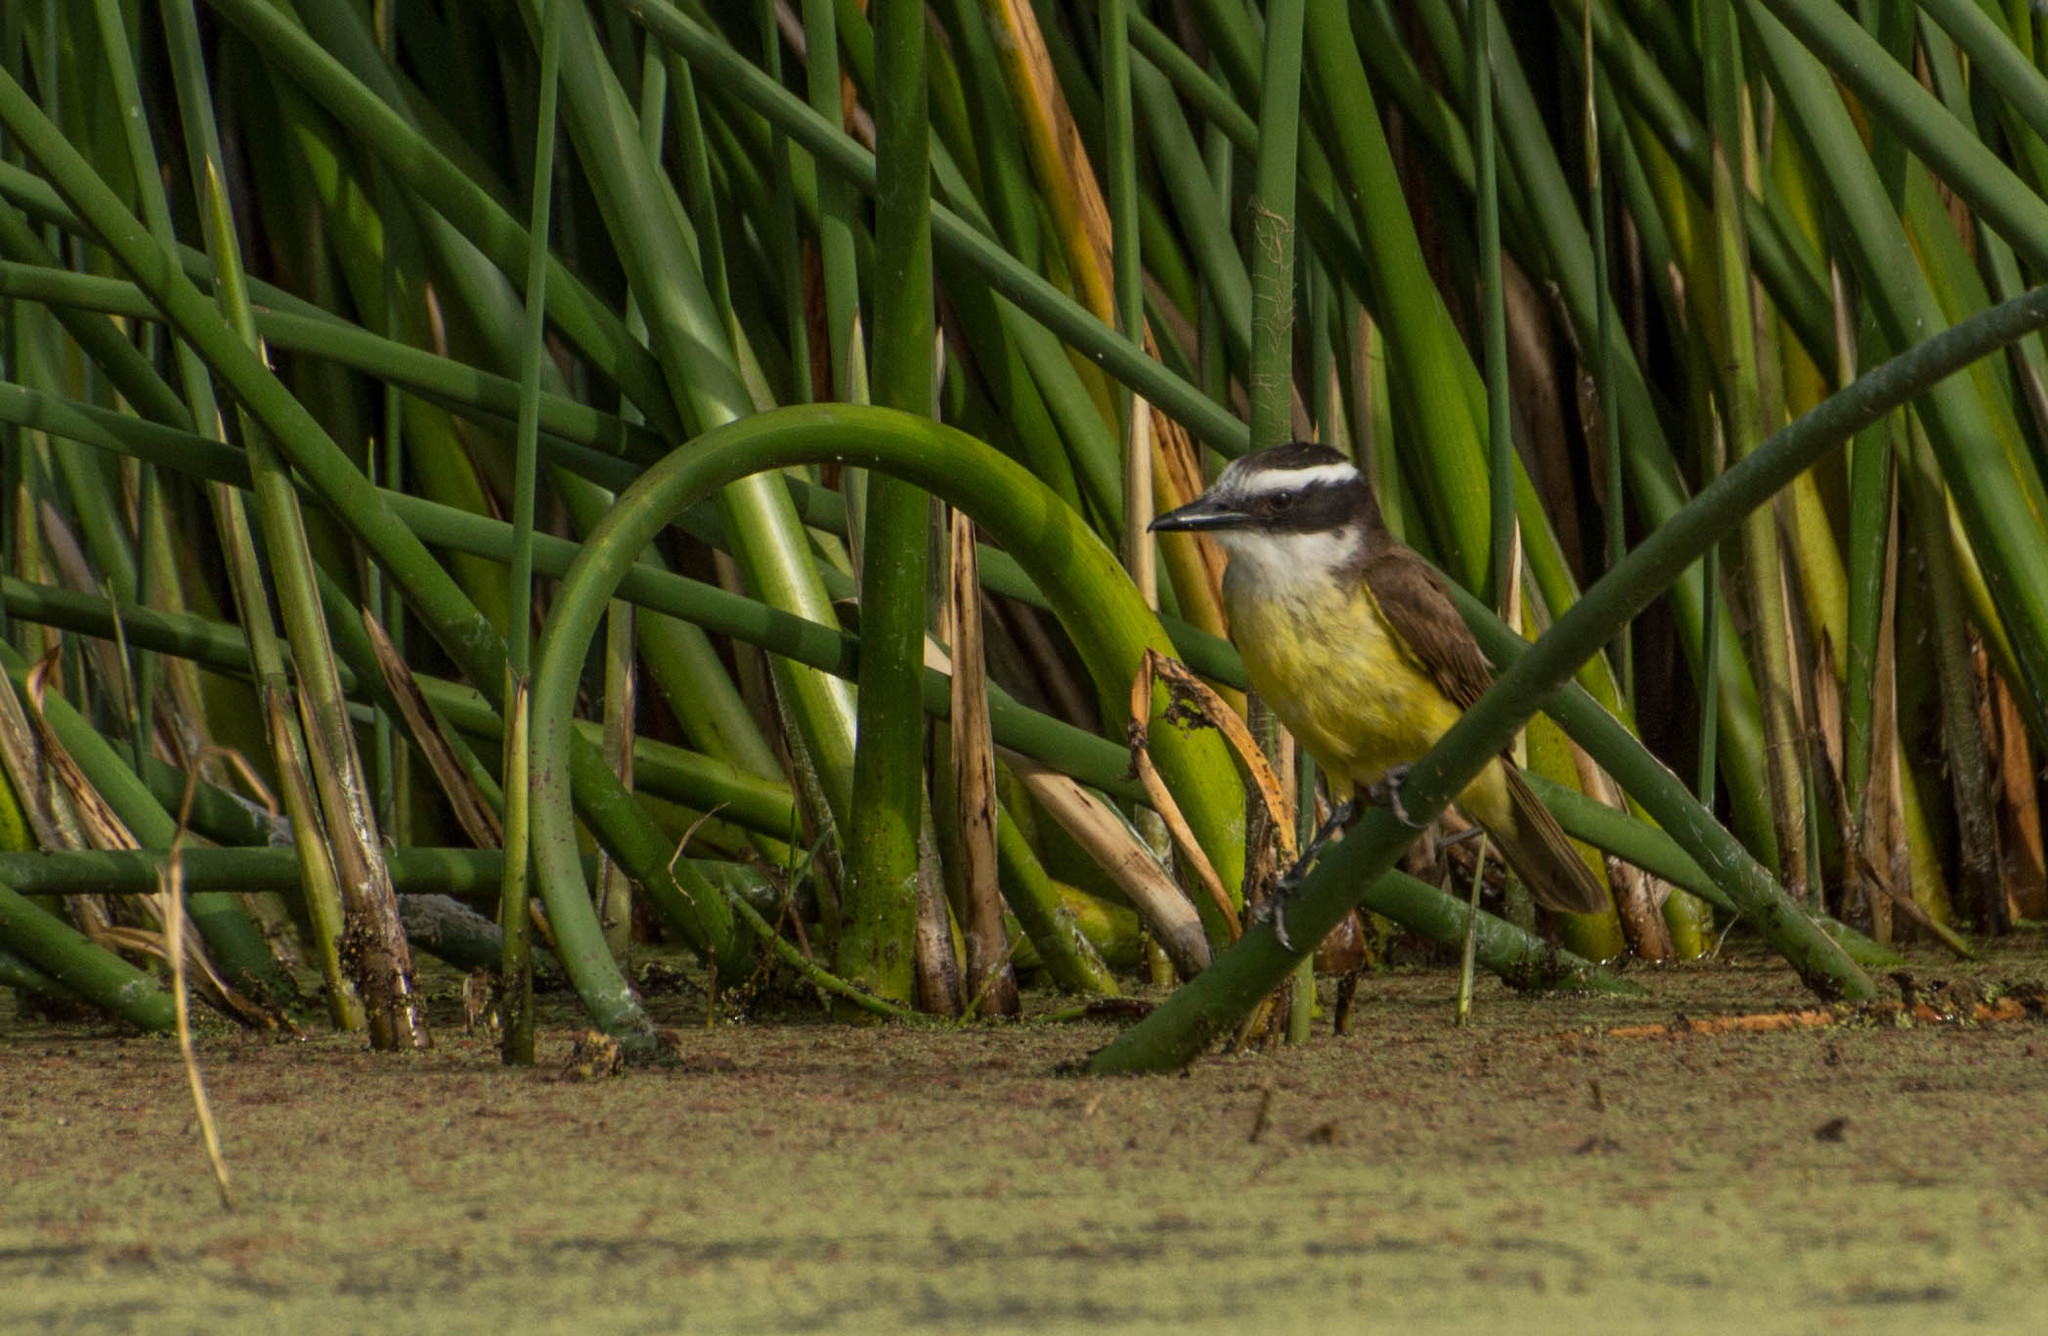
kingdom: Animalia
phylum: Chordata
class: Aves
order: Passeriformes
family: Tyrannidae
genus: Pitangus
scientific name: Pitangus sulphuratus
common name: Great kiskadee
